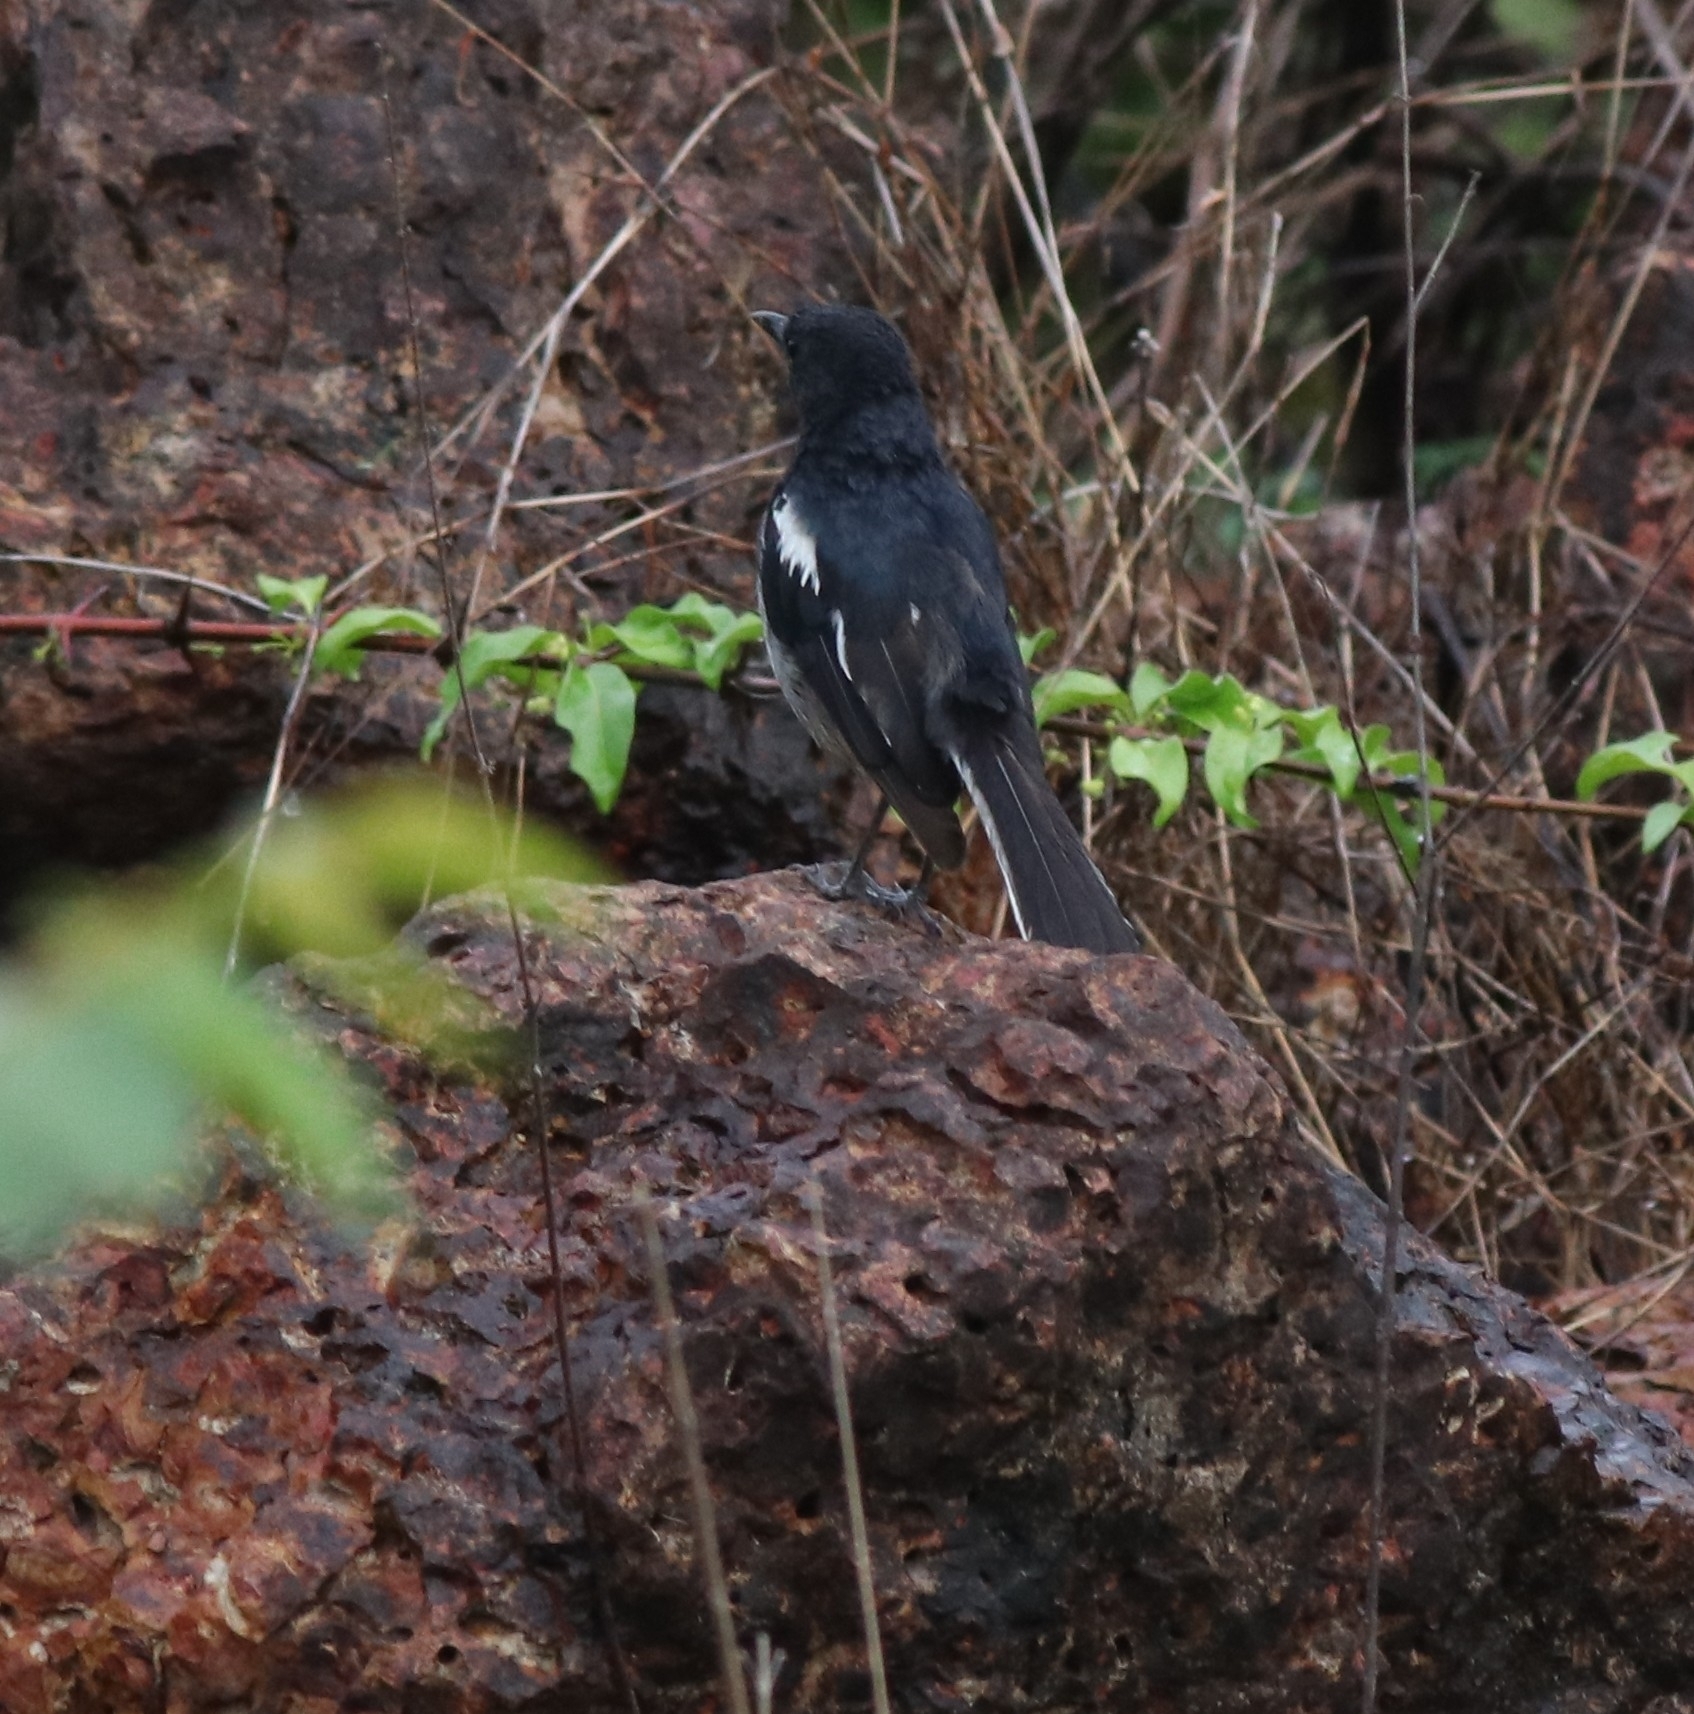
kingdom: Animalia
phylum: Chordata
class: Aves
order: Passeriformes
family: Muscicapidae
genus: Copsychus
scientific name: Copsychus saularis
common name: Oriental magpie-robin
